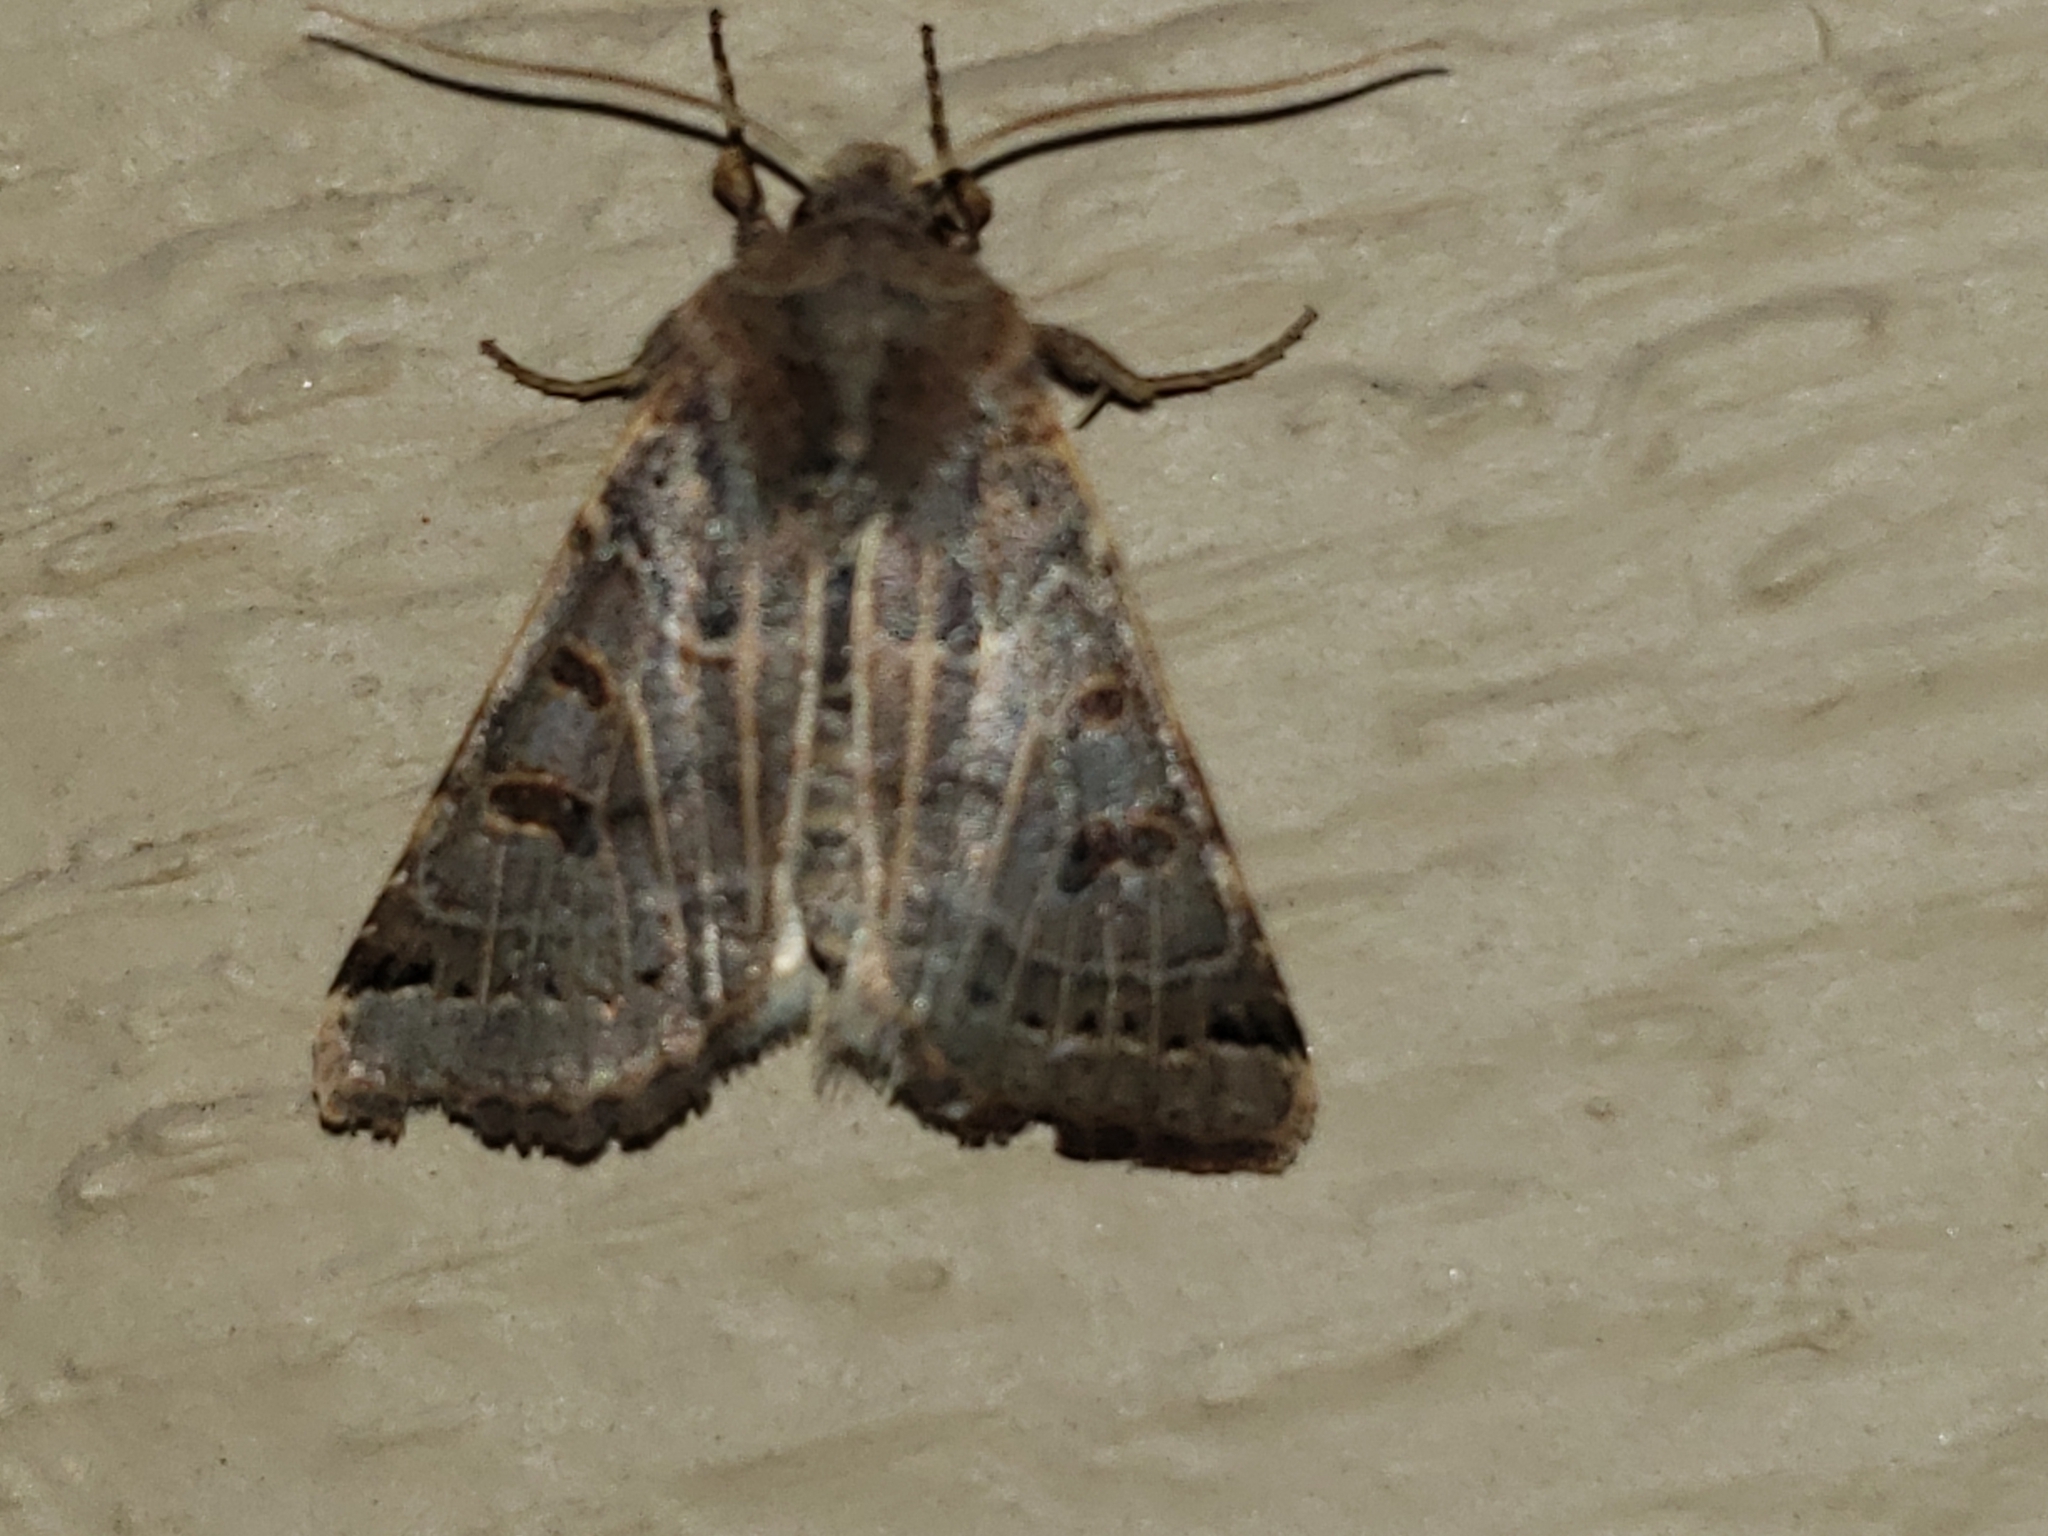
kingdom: Animalia
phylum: Arthropoda
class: Insecta
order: Lepidoptera
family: Noctuidae
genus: Agrochola
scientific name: Agrochola lunosa
